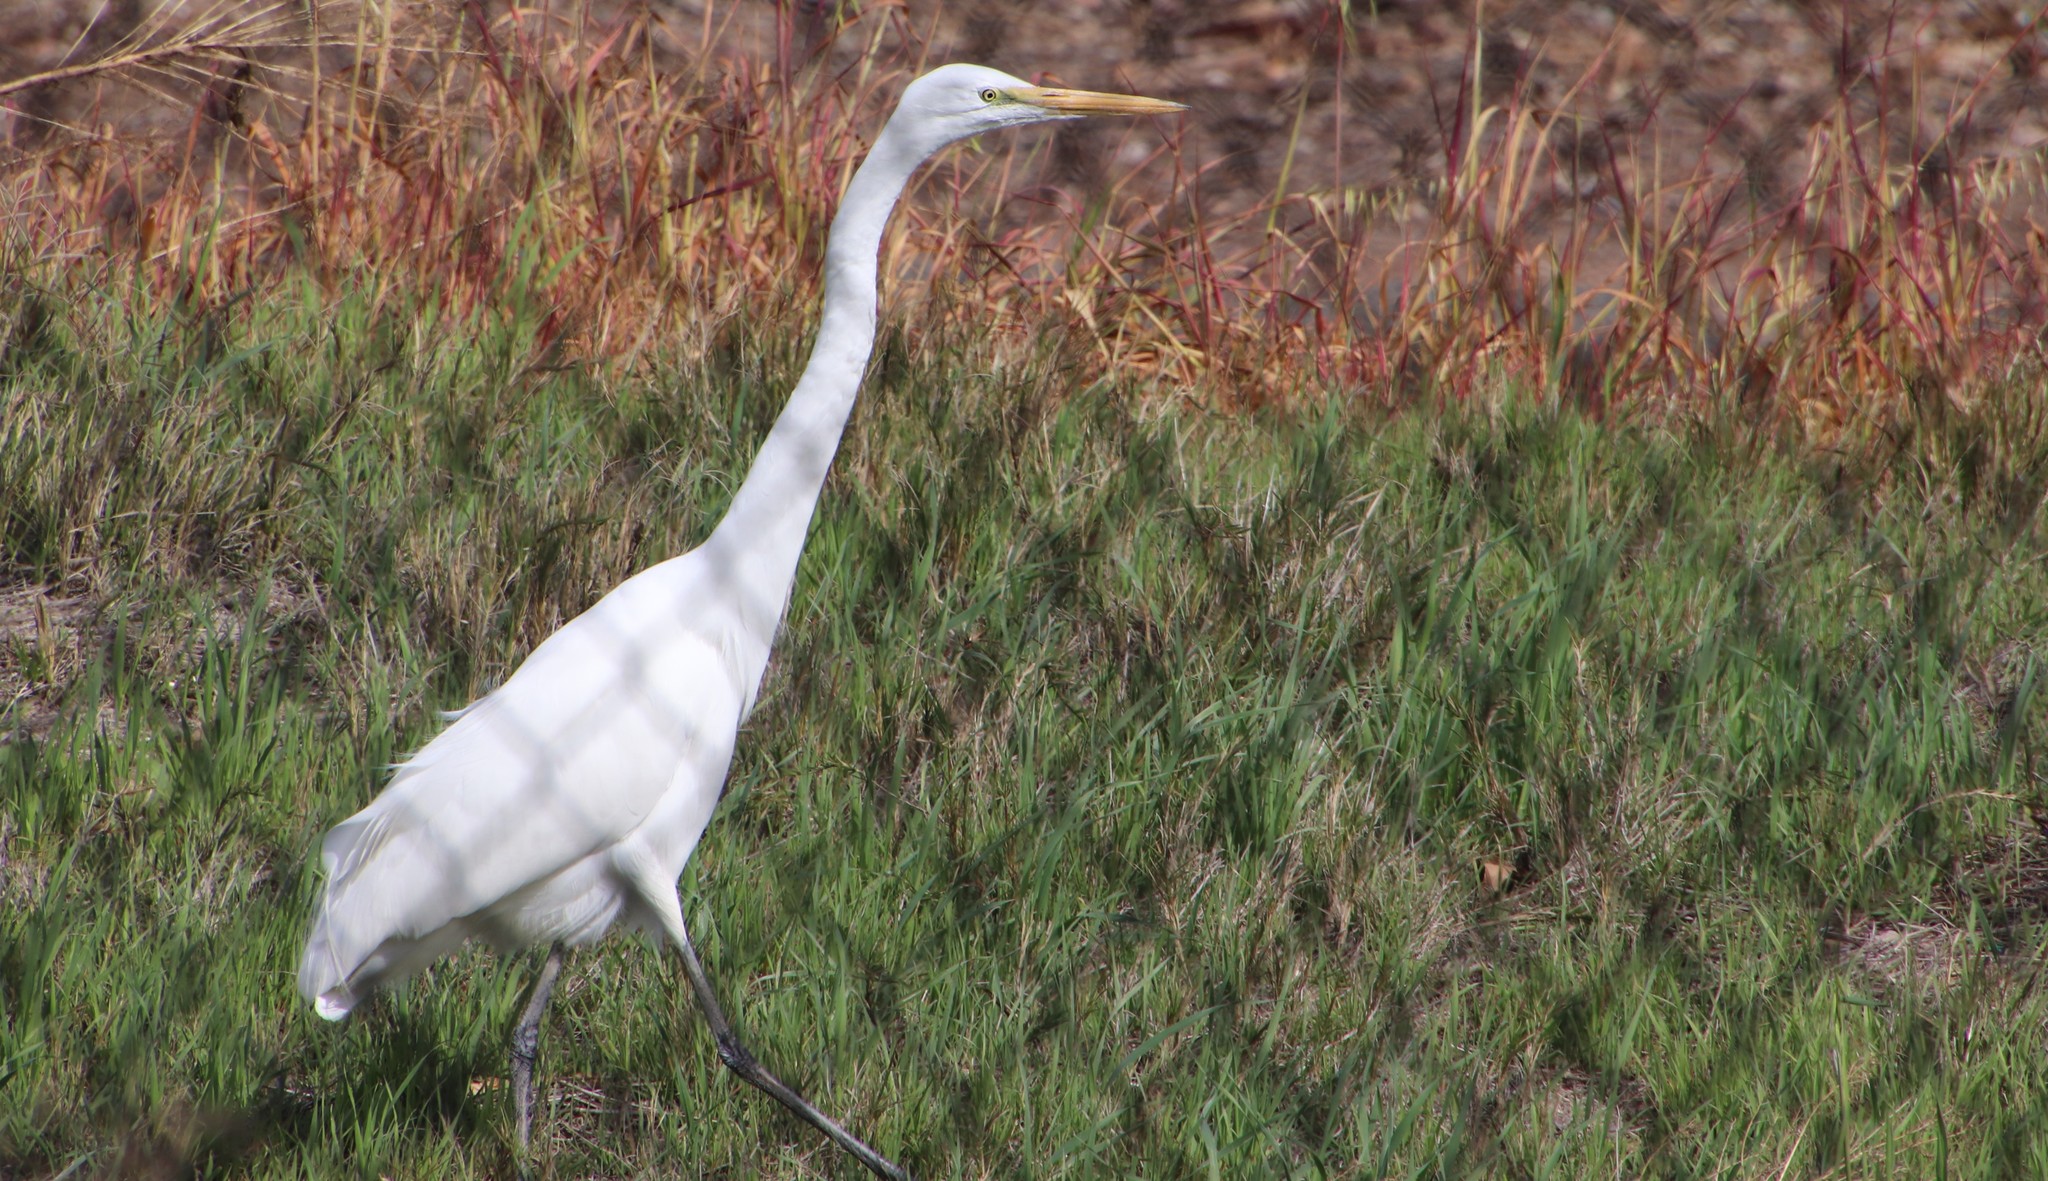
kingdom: Animalia
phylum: Chordata
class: Aves
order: Pelecaniformes
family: Ardeidae
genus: Ardea
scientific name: Ardea alba
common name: Great egret
